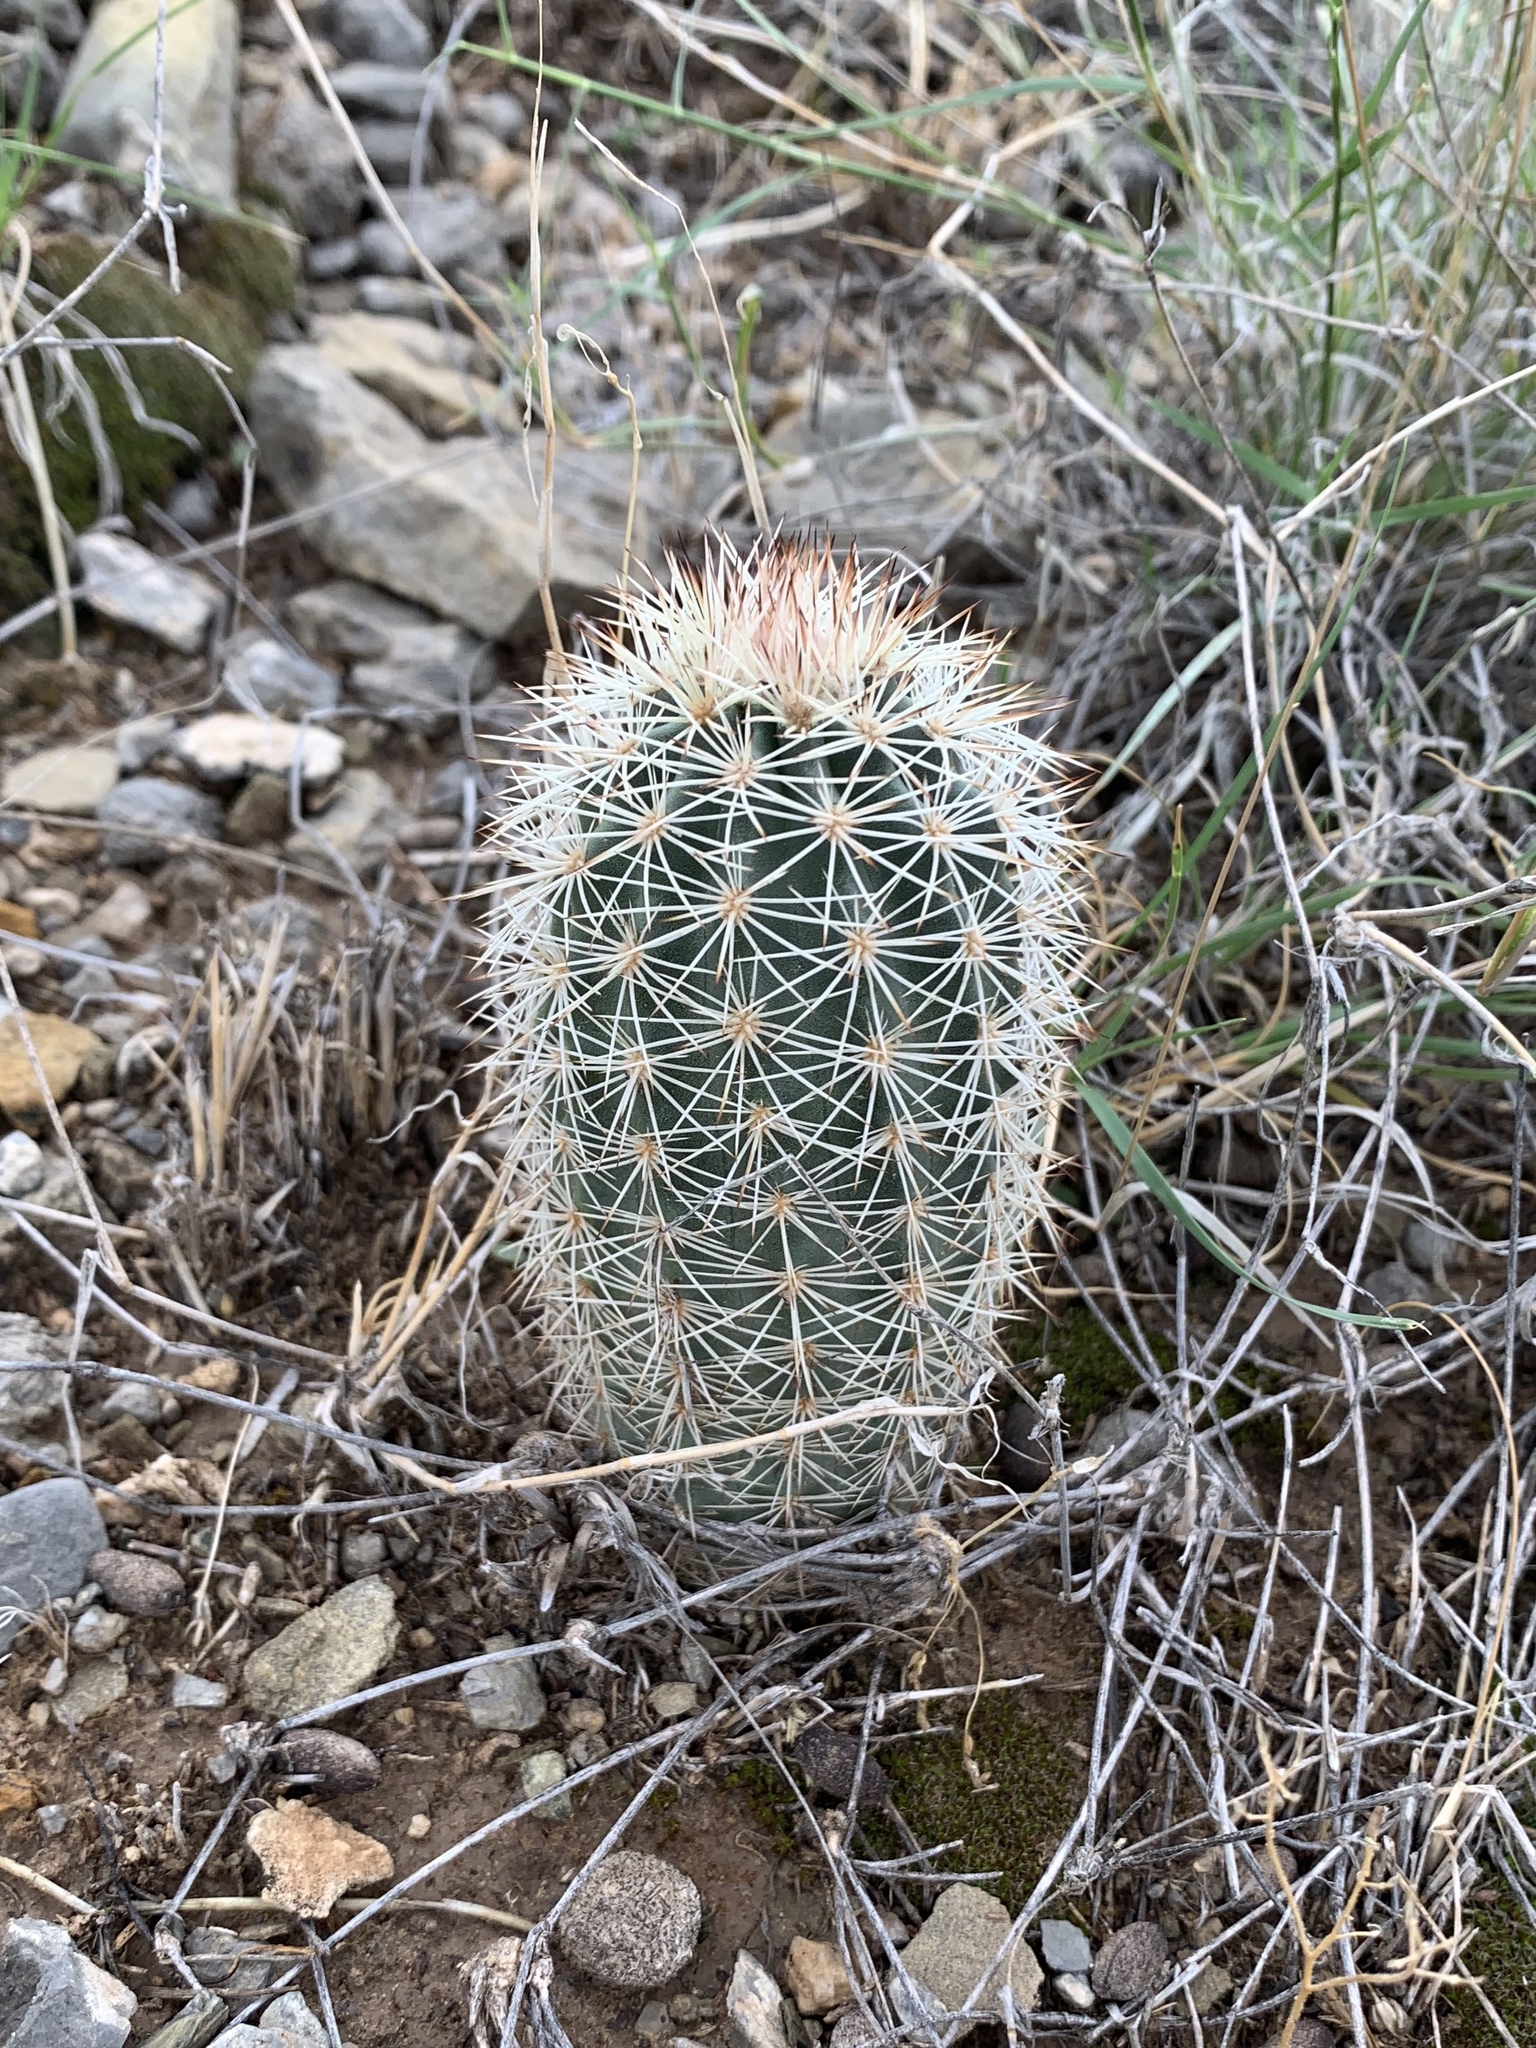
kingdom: Plantae
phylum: Tracheophyta
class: Magnoliopsida
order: Caryophyllales
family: Cactaceae
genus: Echinocereus
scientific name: Echinocereus dasyacanthus
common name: Spiny hedgehog cactus
